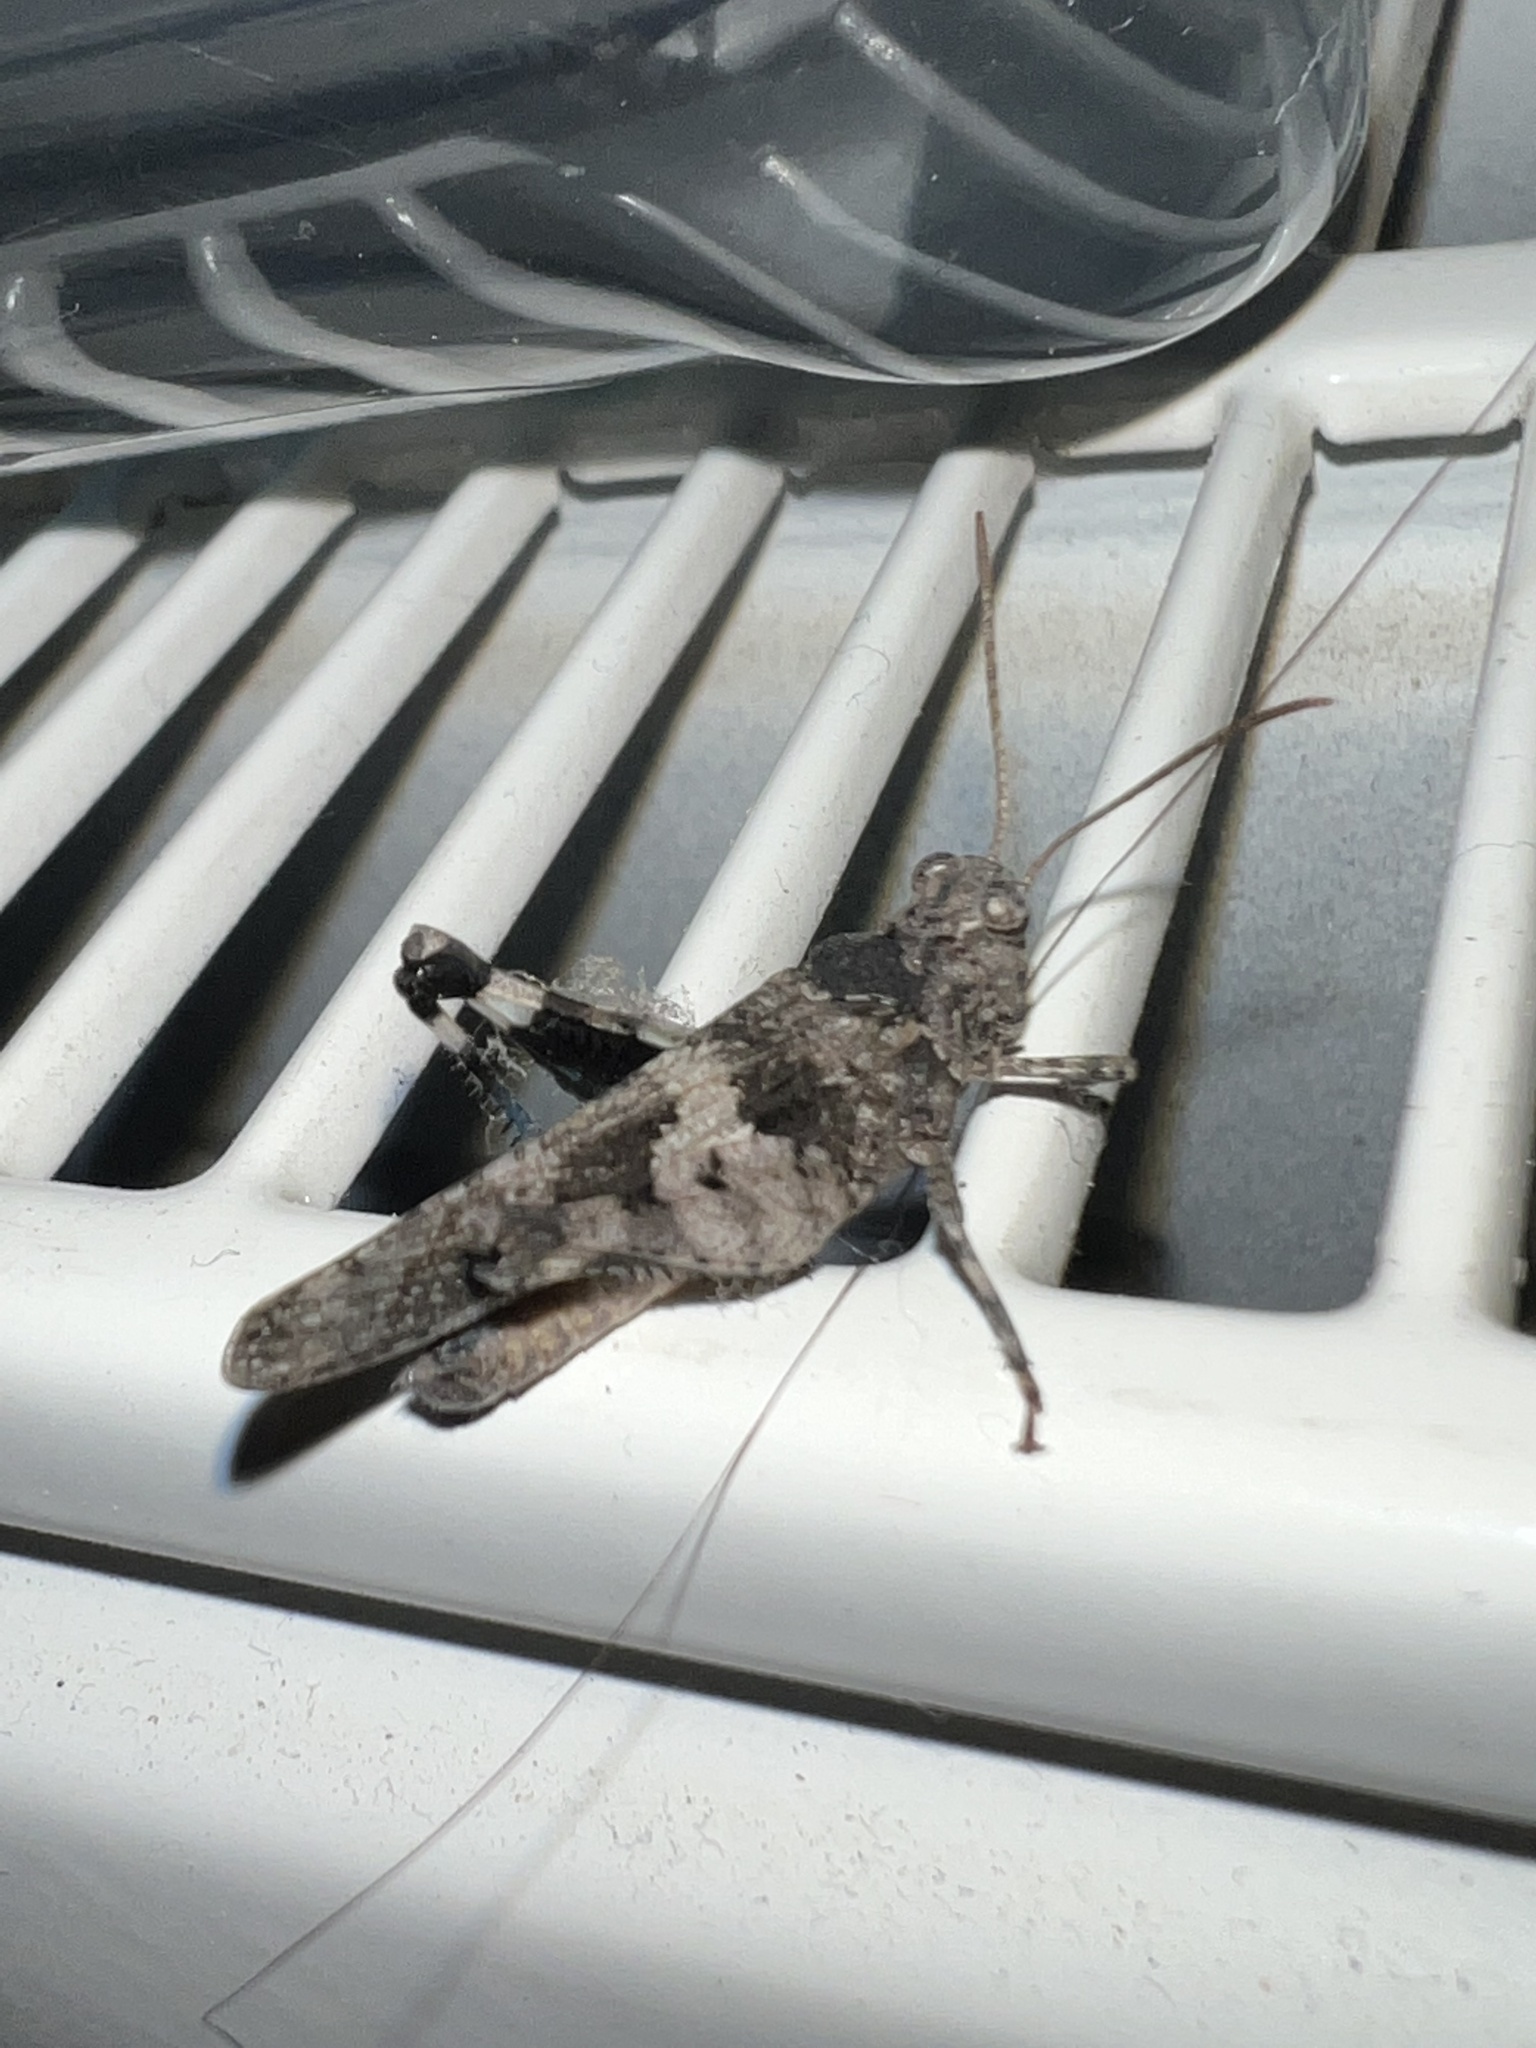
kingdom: Animalia
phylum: Arthropoda
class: Insecta
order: Orthoptera
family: Acrididae
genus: Oedipoda
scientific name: Oedipoda caerulescens
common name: Blue-winged grasshopper
